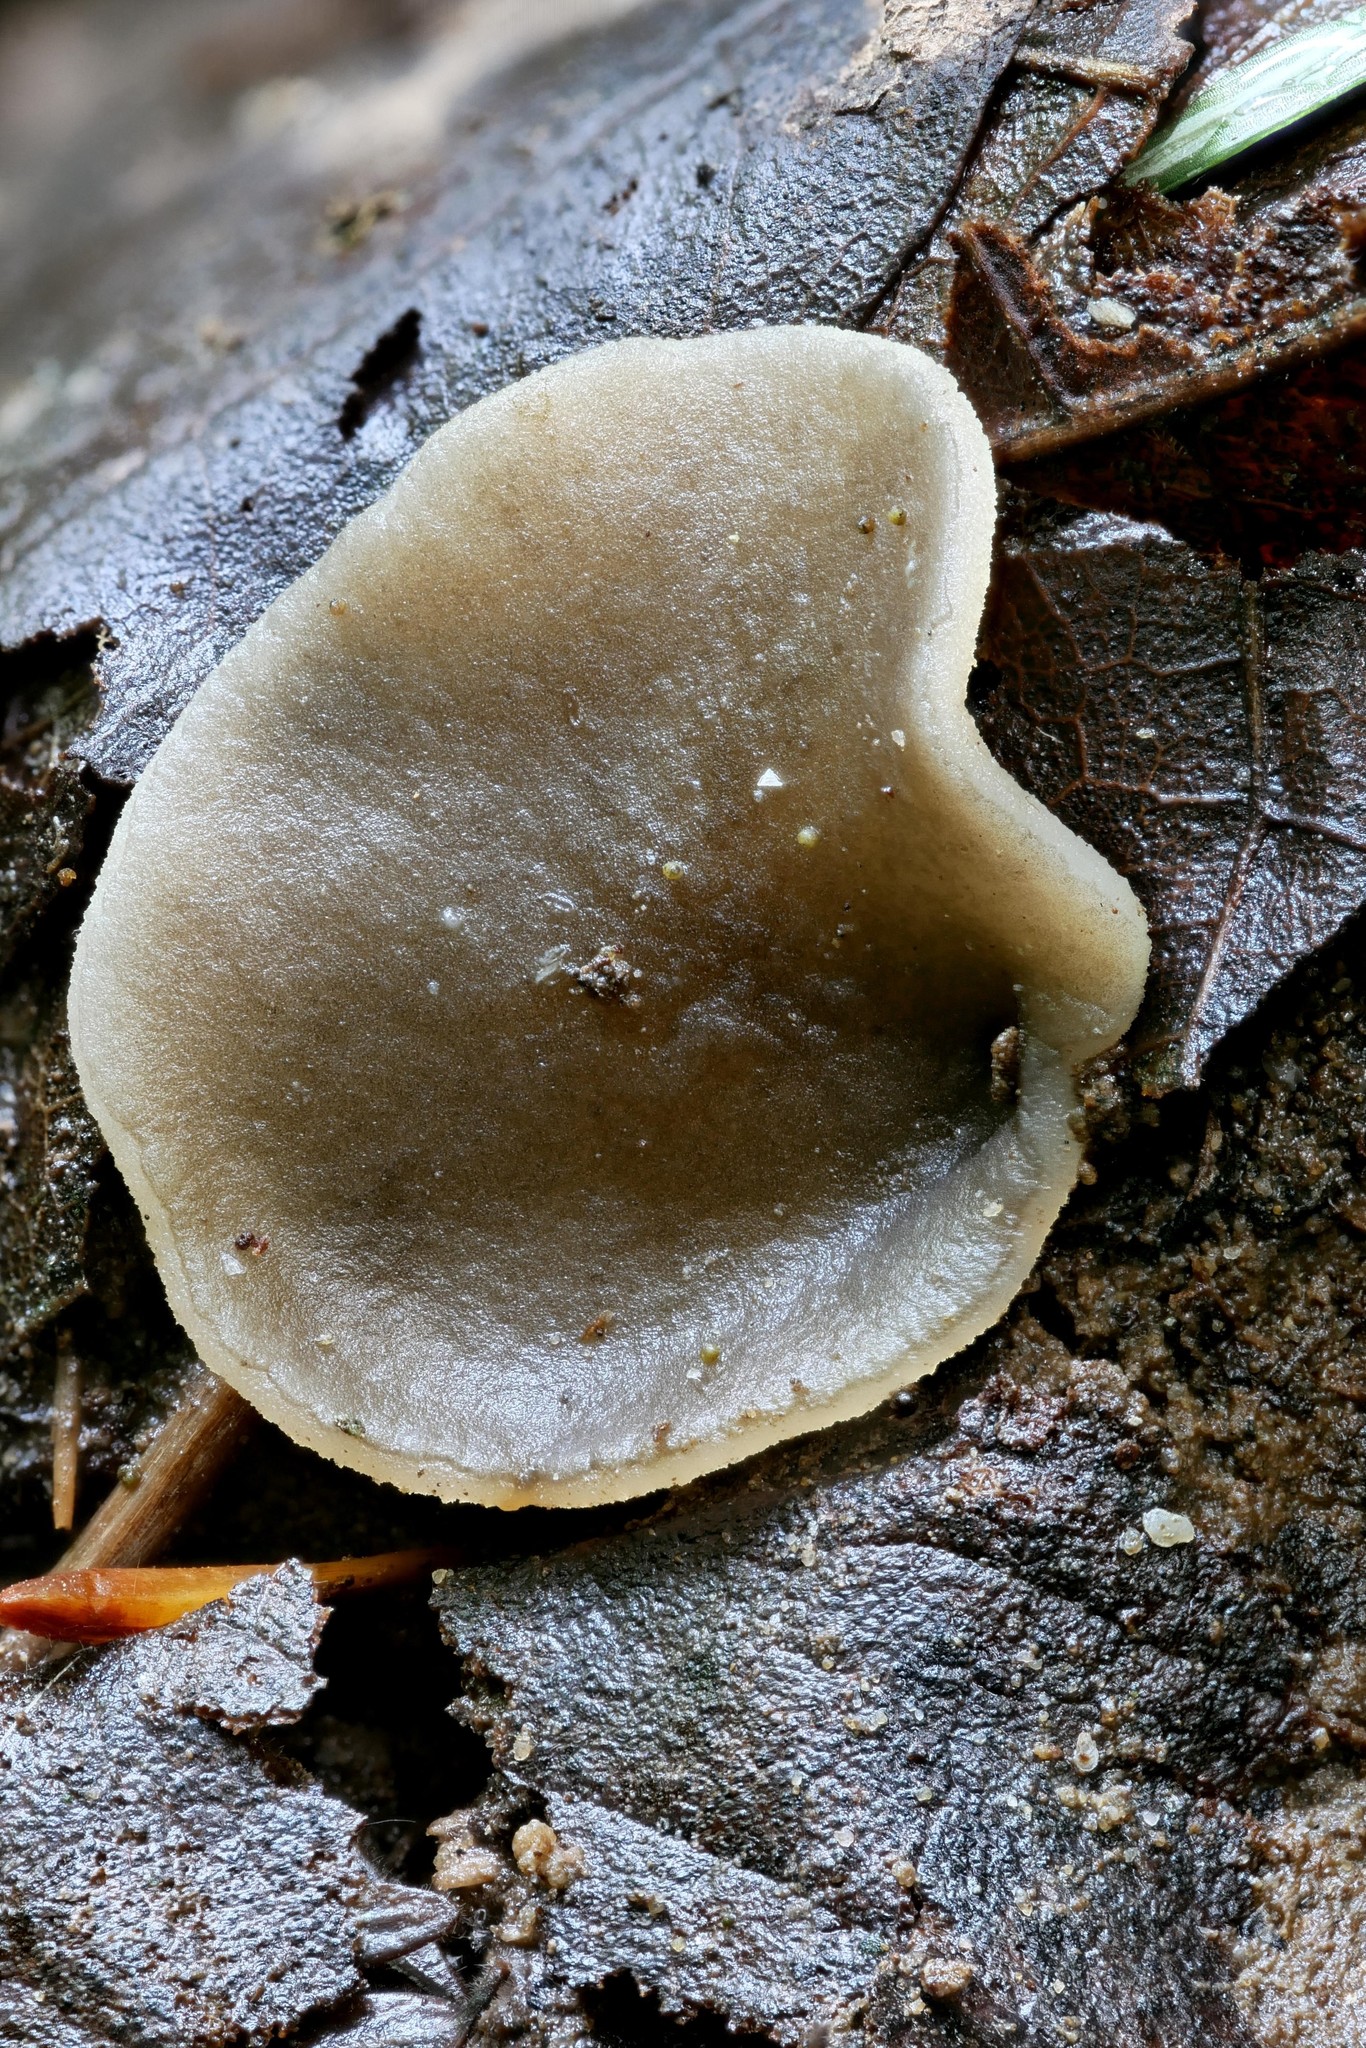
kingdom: Fungi
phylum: Ascomycota
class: Pezizomycetes
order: Pezizales
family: Pezizaceae
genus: Pachyella
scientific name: Pachyella celtica
